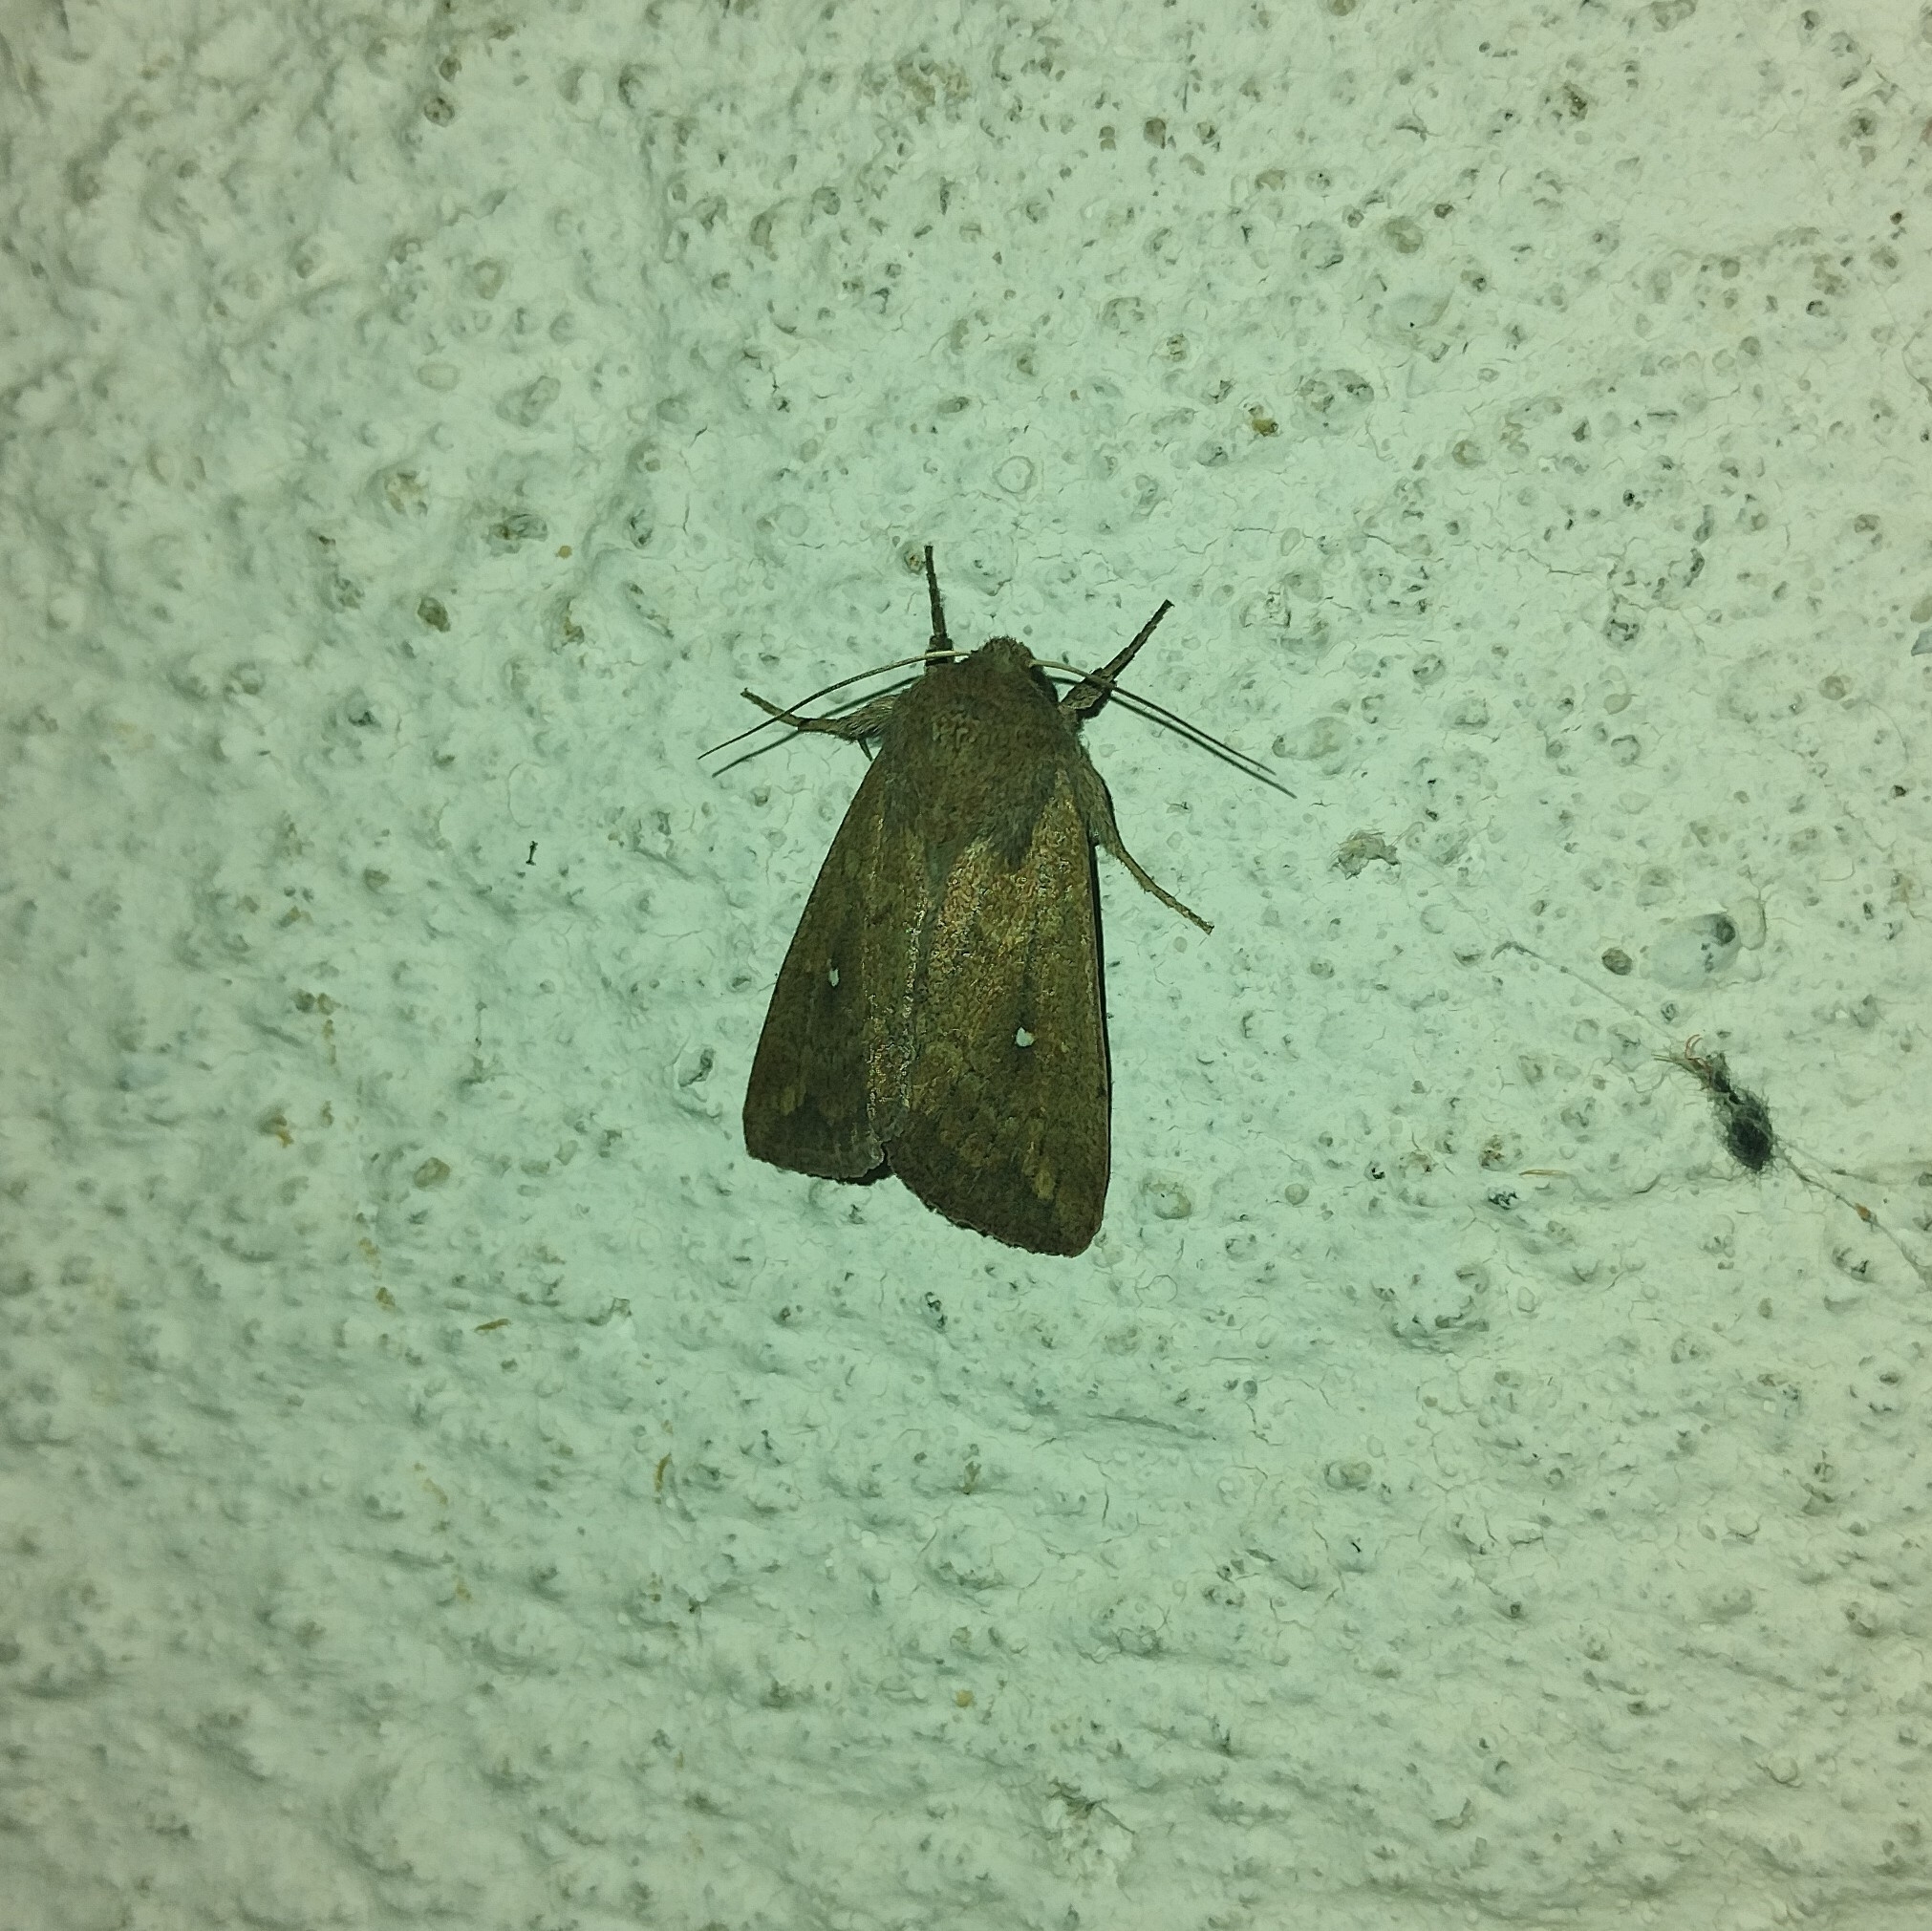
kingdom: Animalia
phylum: Arthropoda
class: Insecta
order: Lepidoptera
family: Noctuidae
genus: Mythimna
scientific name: Mythimna albipuncta
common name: White-point
